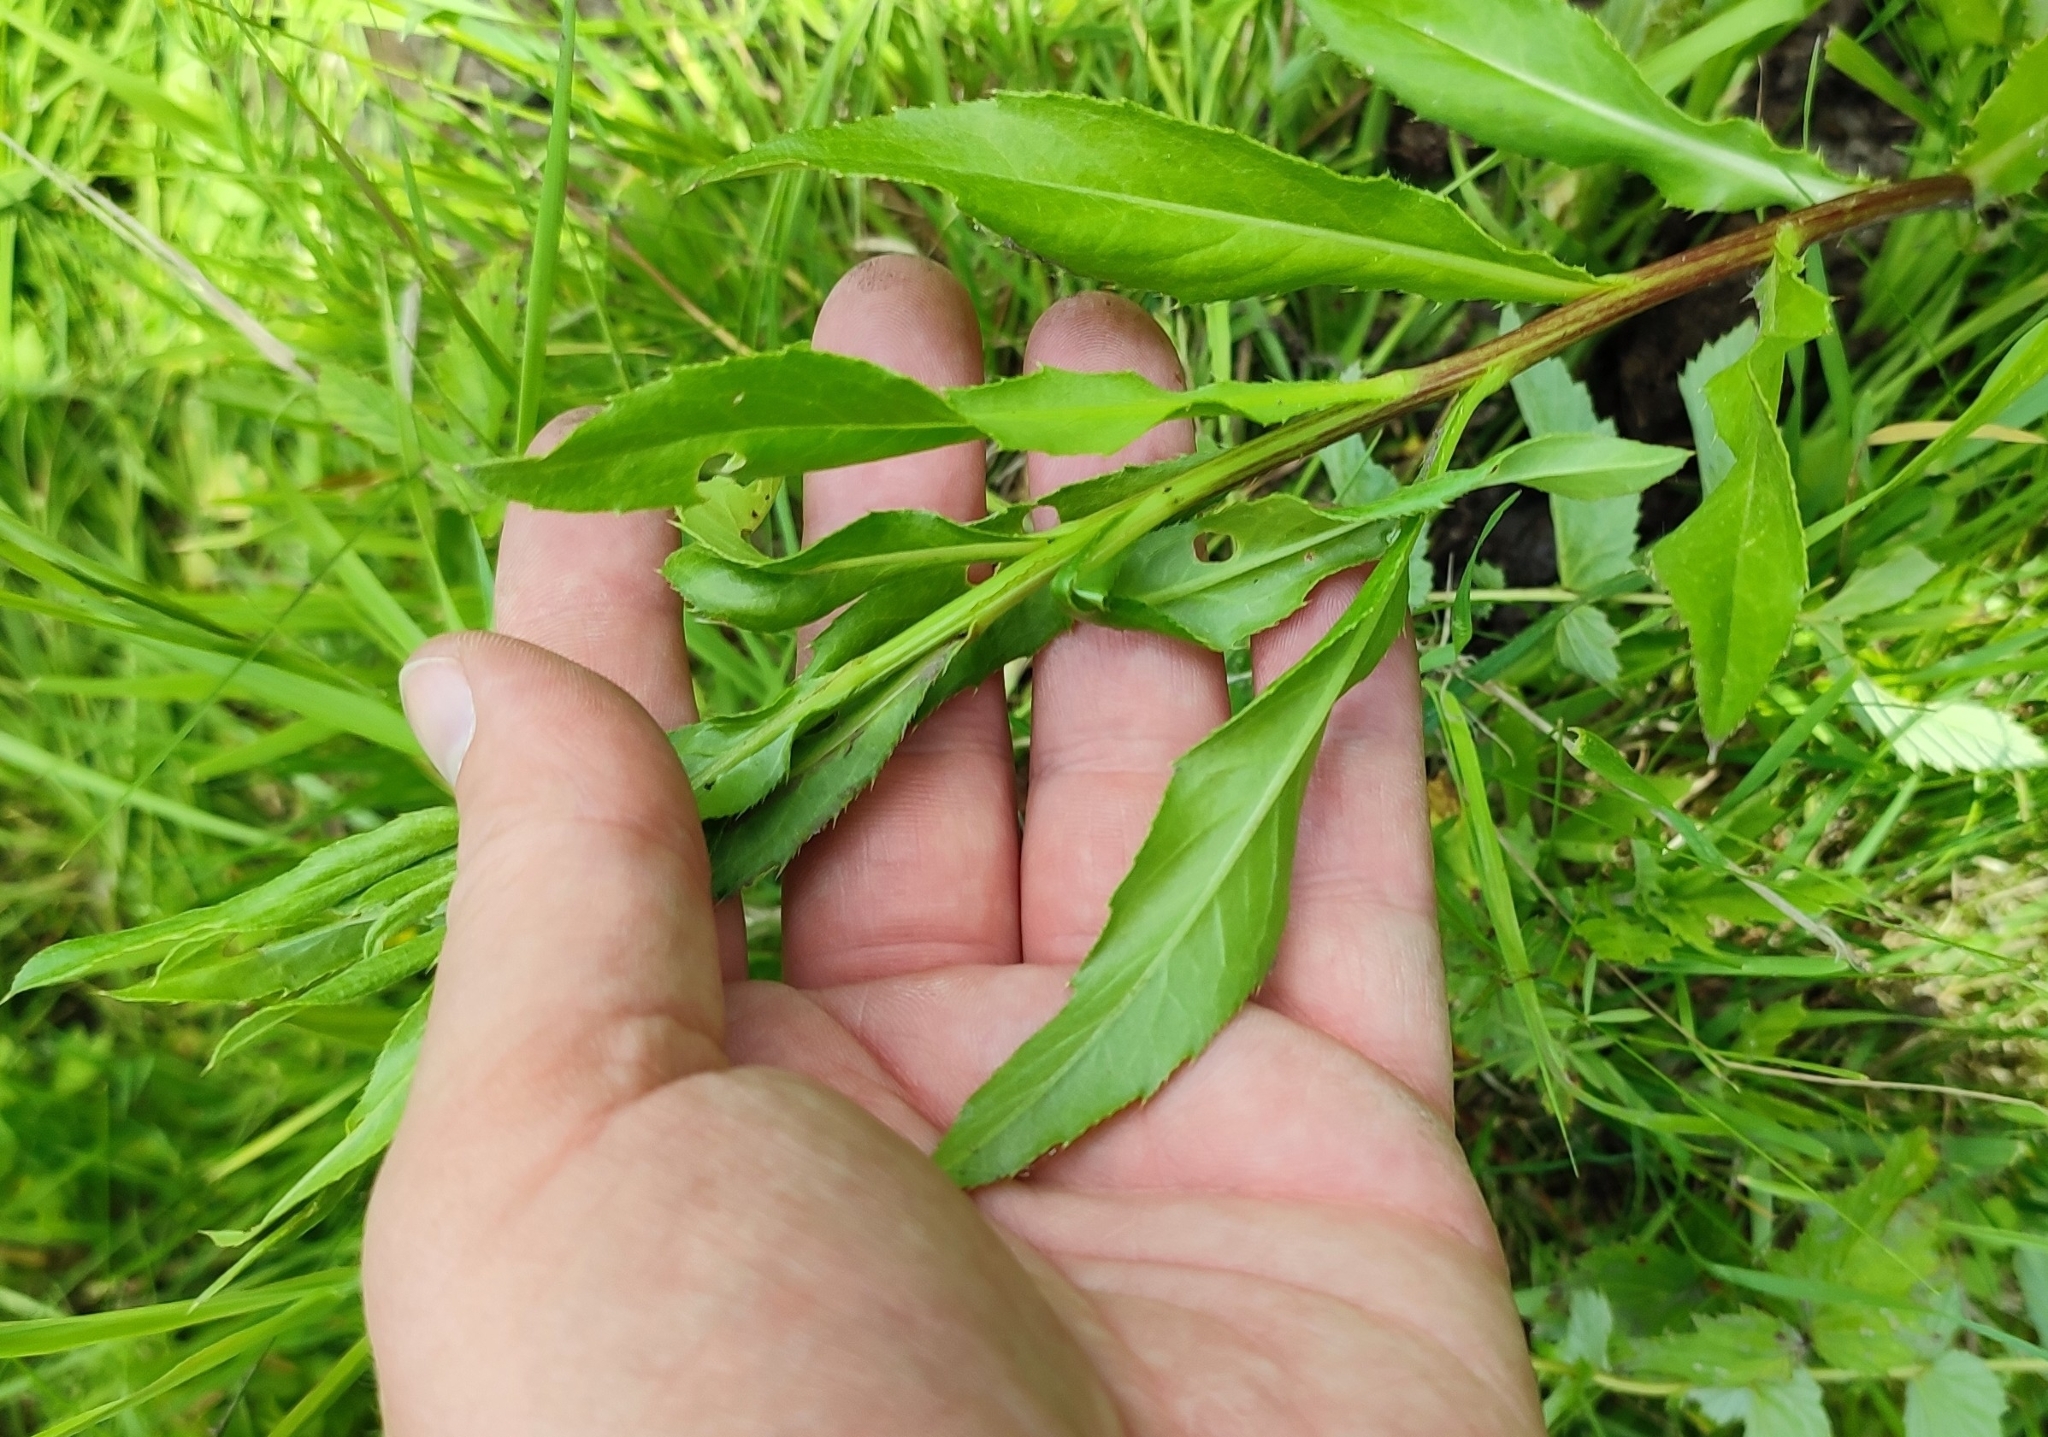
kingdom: Plantae
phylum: Tracheophyta
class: Magnoliopsida
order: Asterales
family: Asteraceae
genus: Cirsium
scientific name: Cirsium arvense
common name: Creeping thistle
